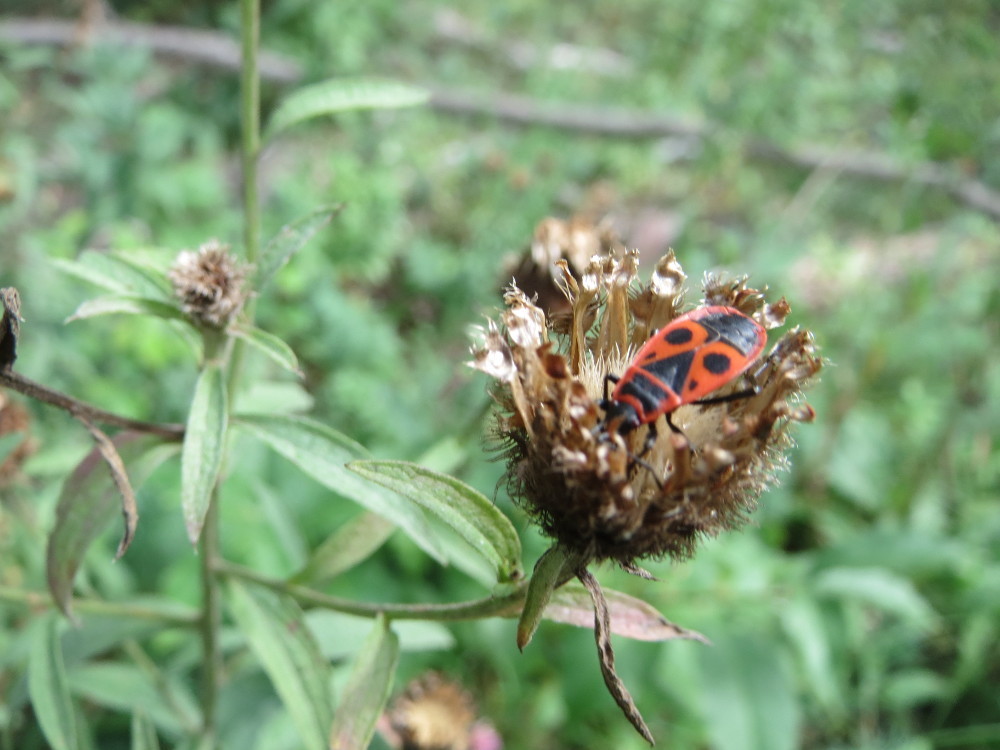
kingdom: Animalia
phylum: Arthropoda
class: Insecta
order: Hemiptera
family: Pyrrhocoridae
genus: Pyrrhocoris
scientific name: Pyrrhocoris apterus
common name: Firebug
